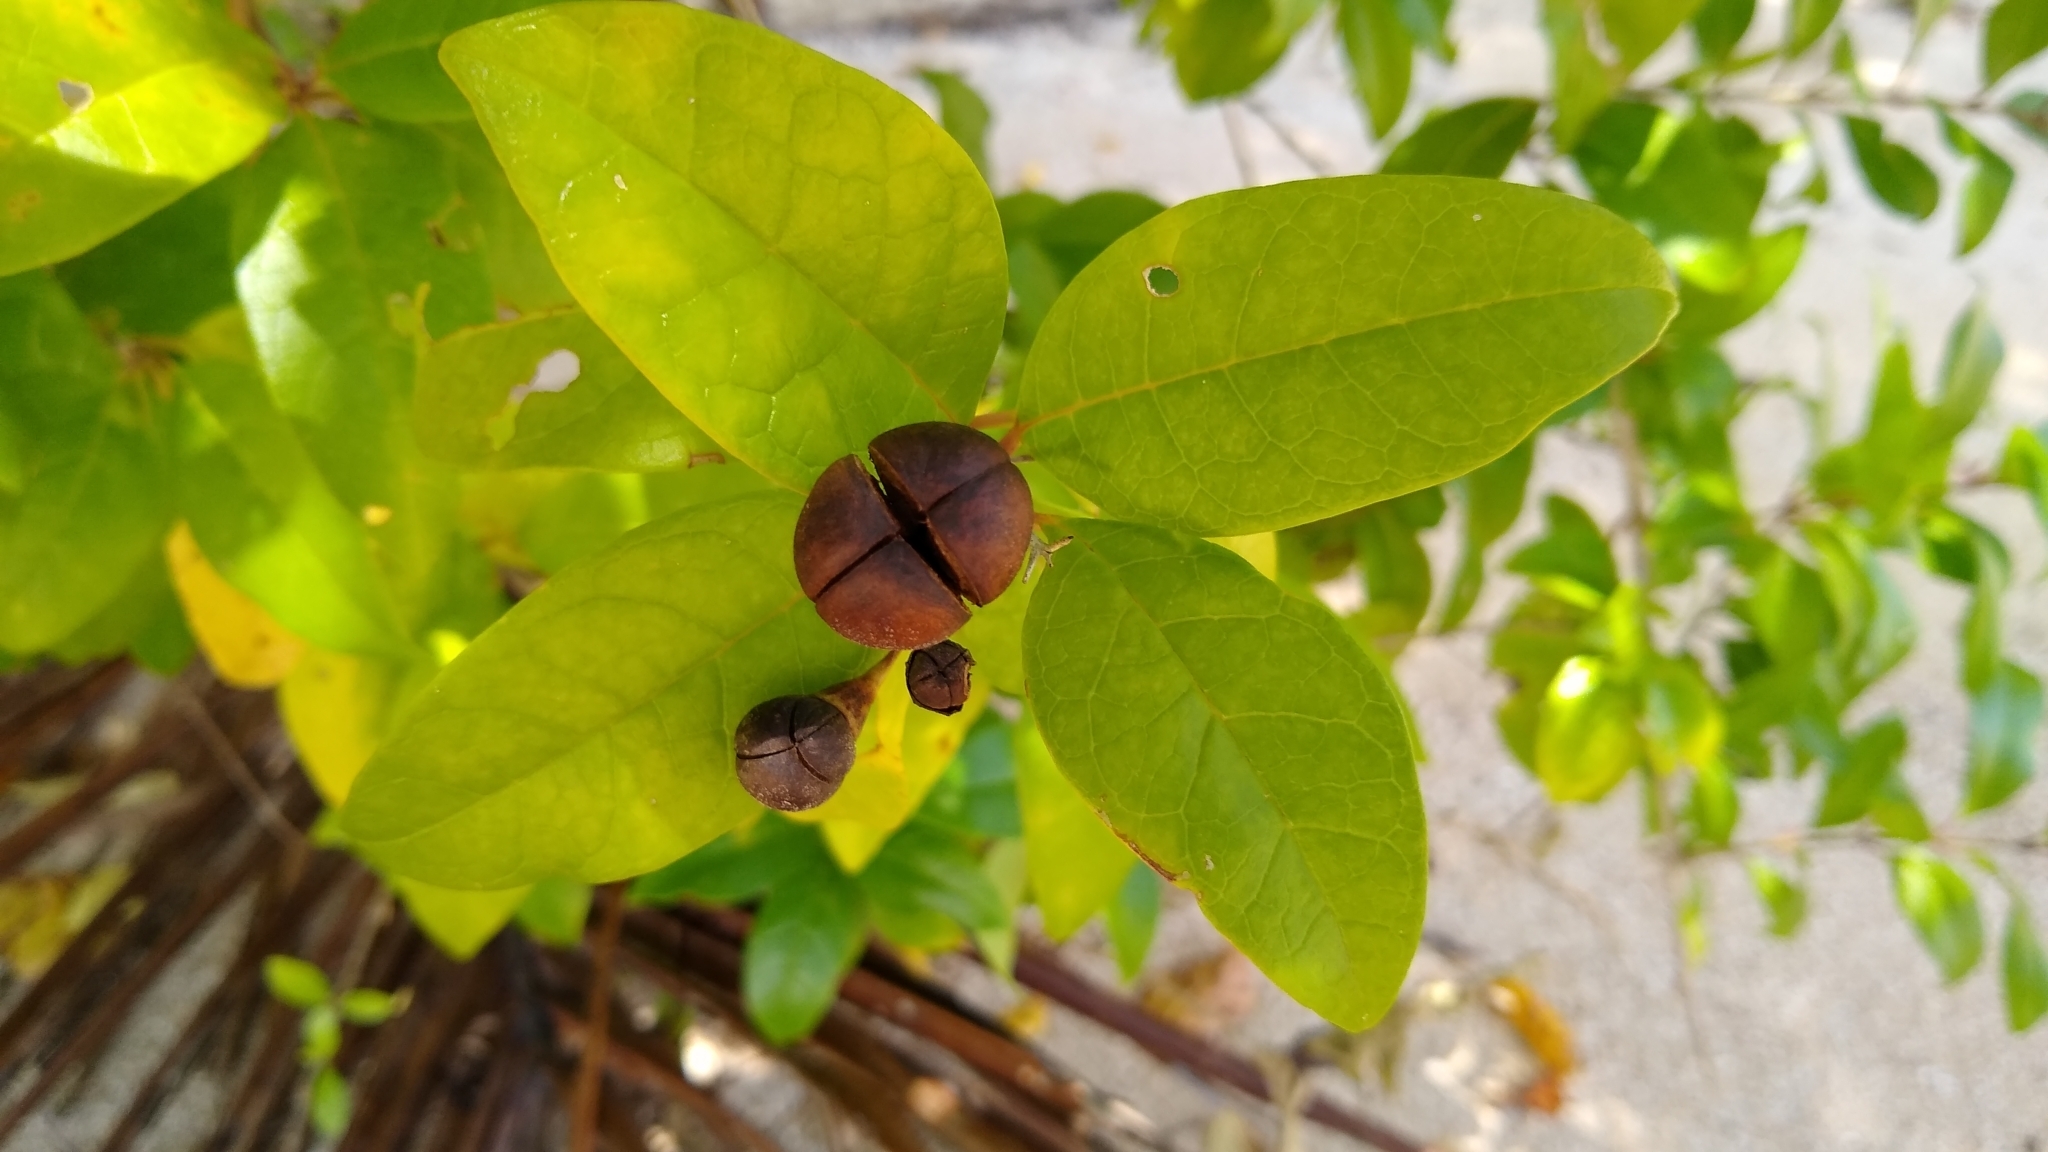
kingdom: Plantae
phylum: Tracheophyta
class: Magnoliopsida
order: Lamiales
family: Lamiaceae
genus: Volkameria
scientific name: Volkameria inermis
